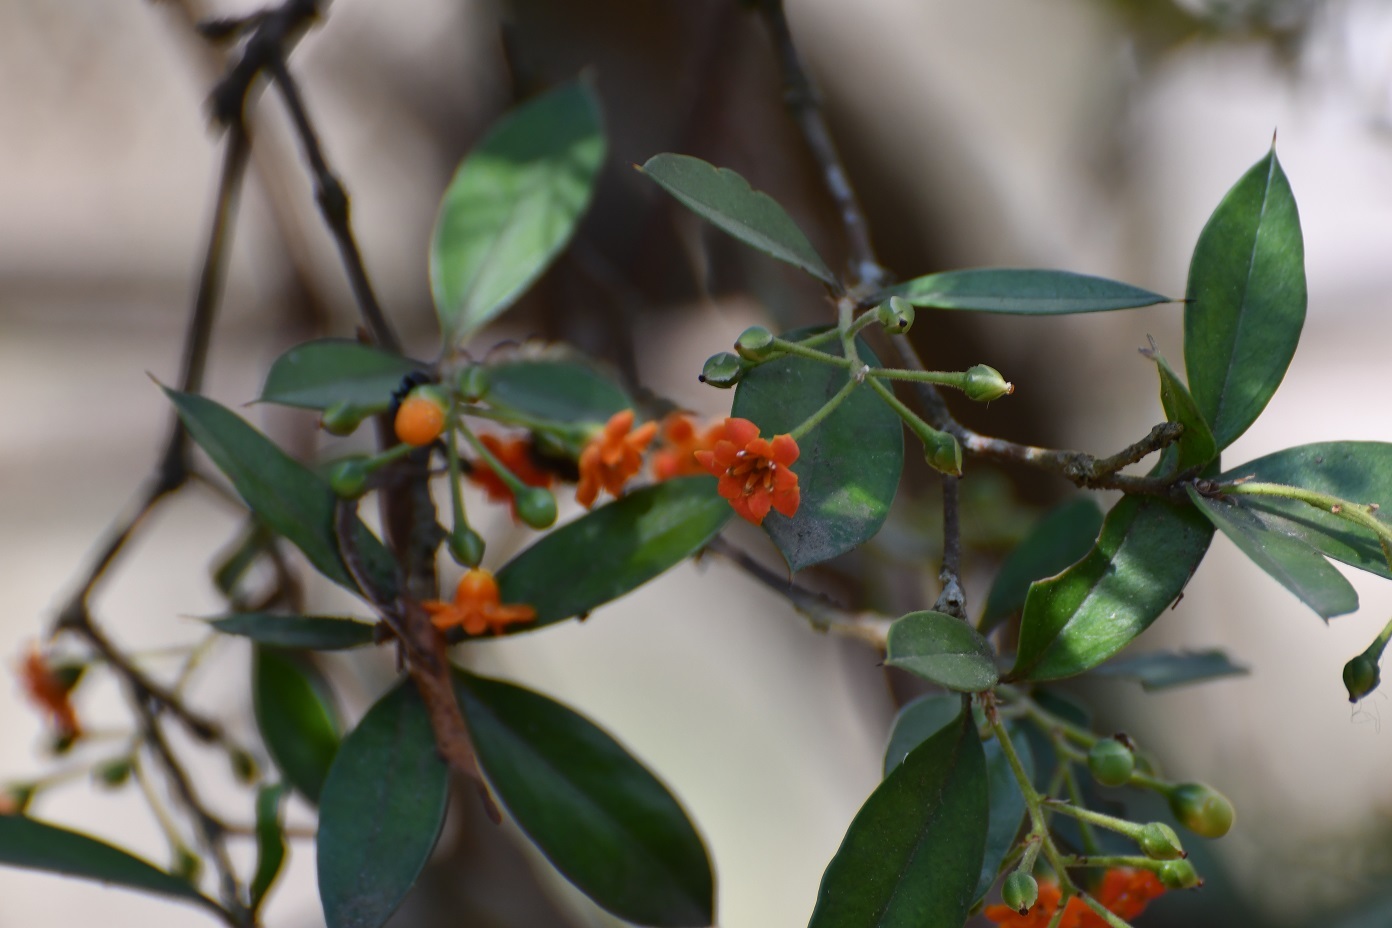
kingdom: Plantae
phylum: Tracheophyta
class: Magnoliopsida
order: Ericales
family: Primulaceae
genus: Bonellia
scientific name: Bonellia macrocarpa
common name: Primrose
